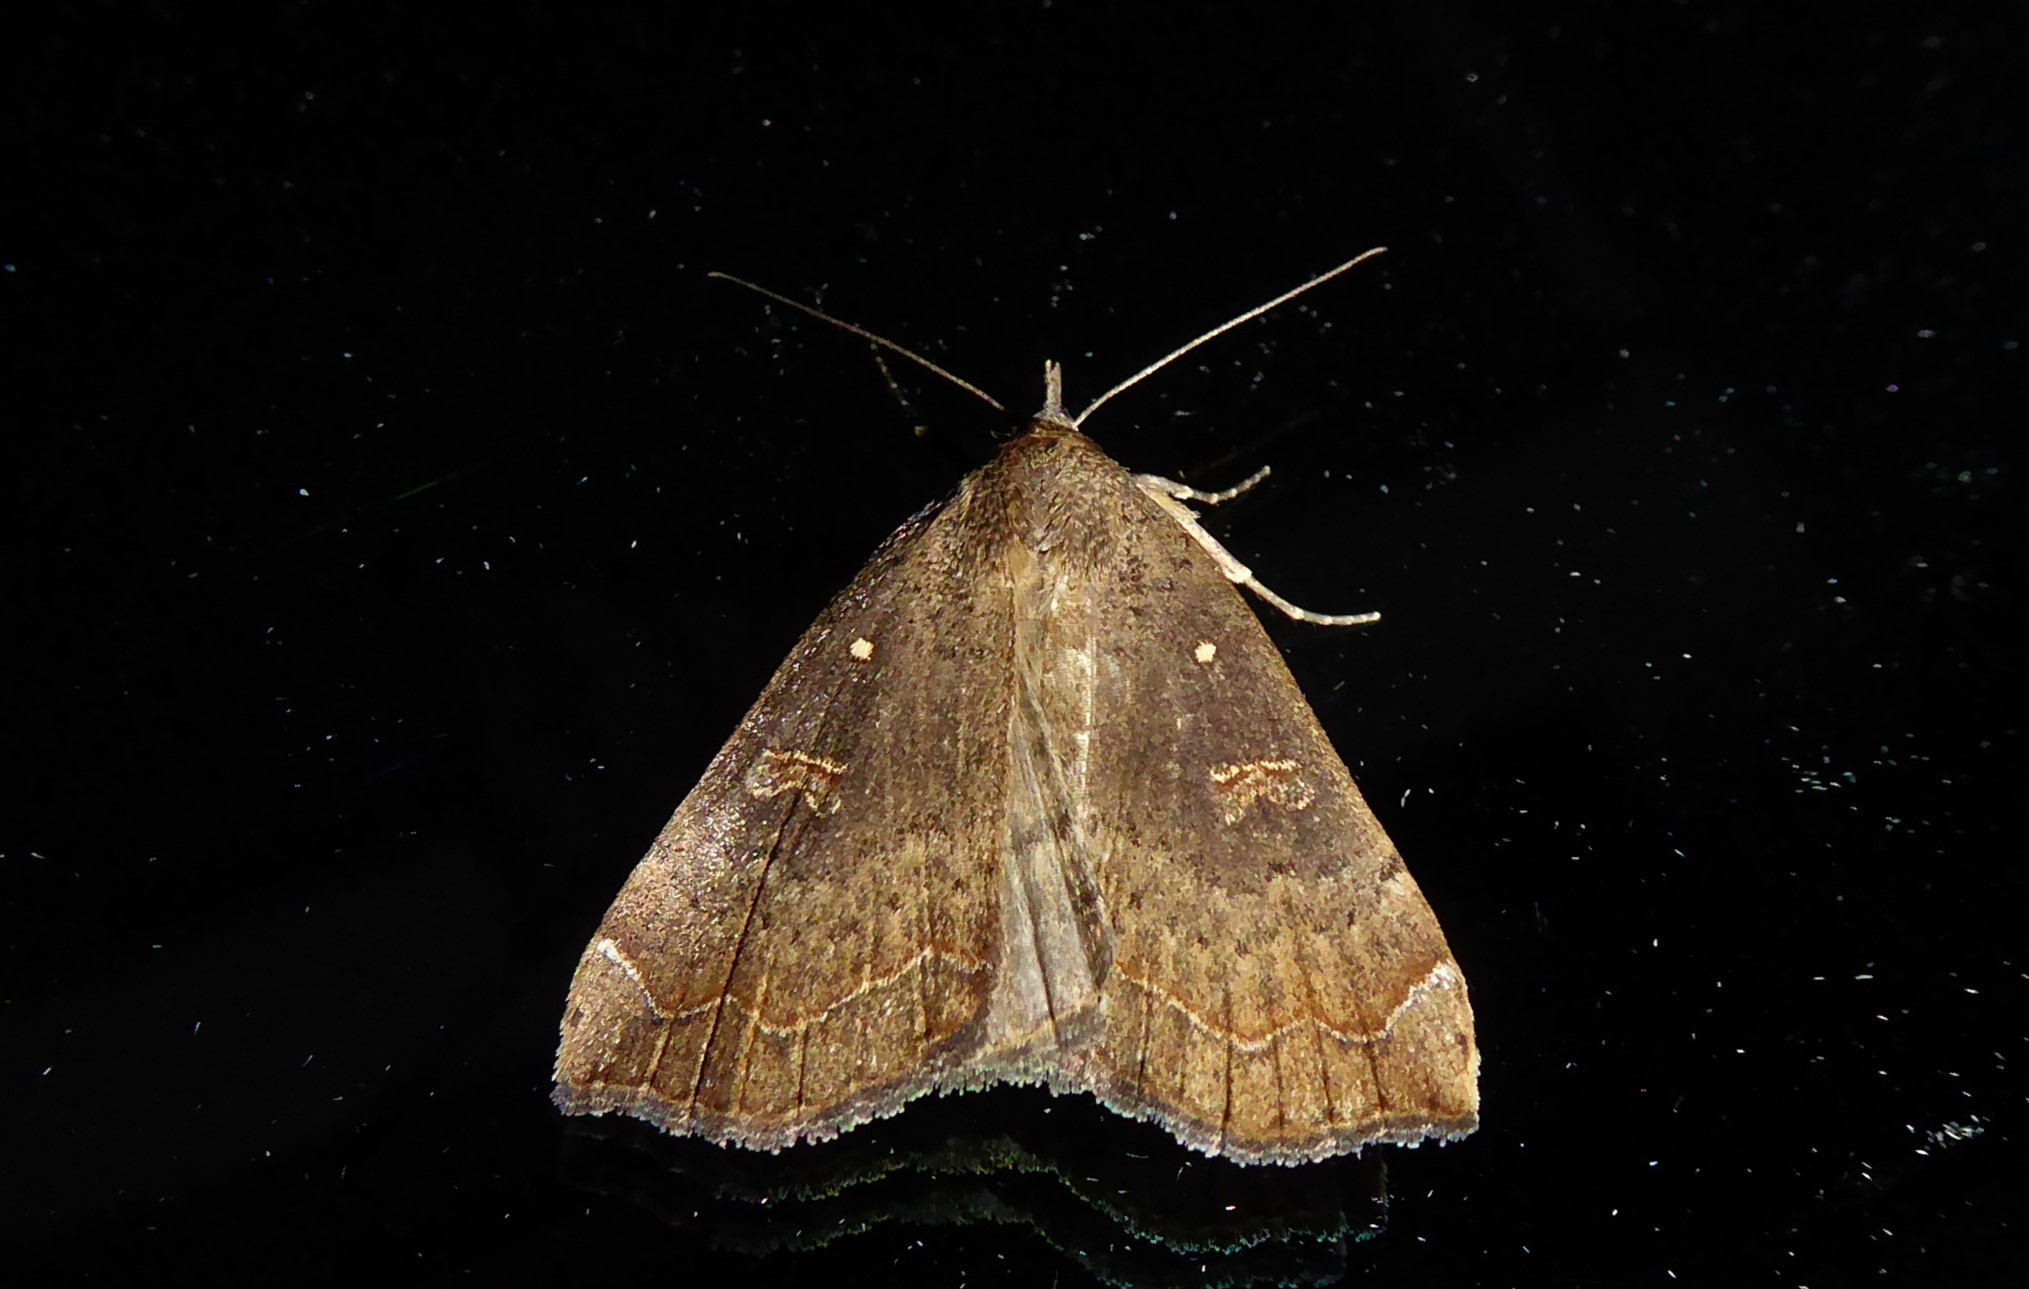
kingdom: Animalia
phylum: Arthropoda
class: Insecta
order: Lepidoptera
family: Erebidae
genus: Rhapsa
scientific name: Rhapsa scotosialis
